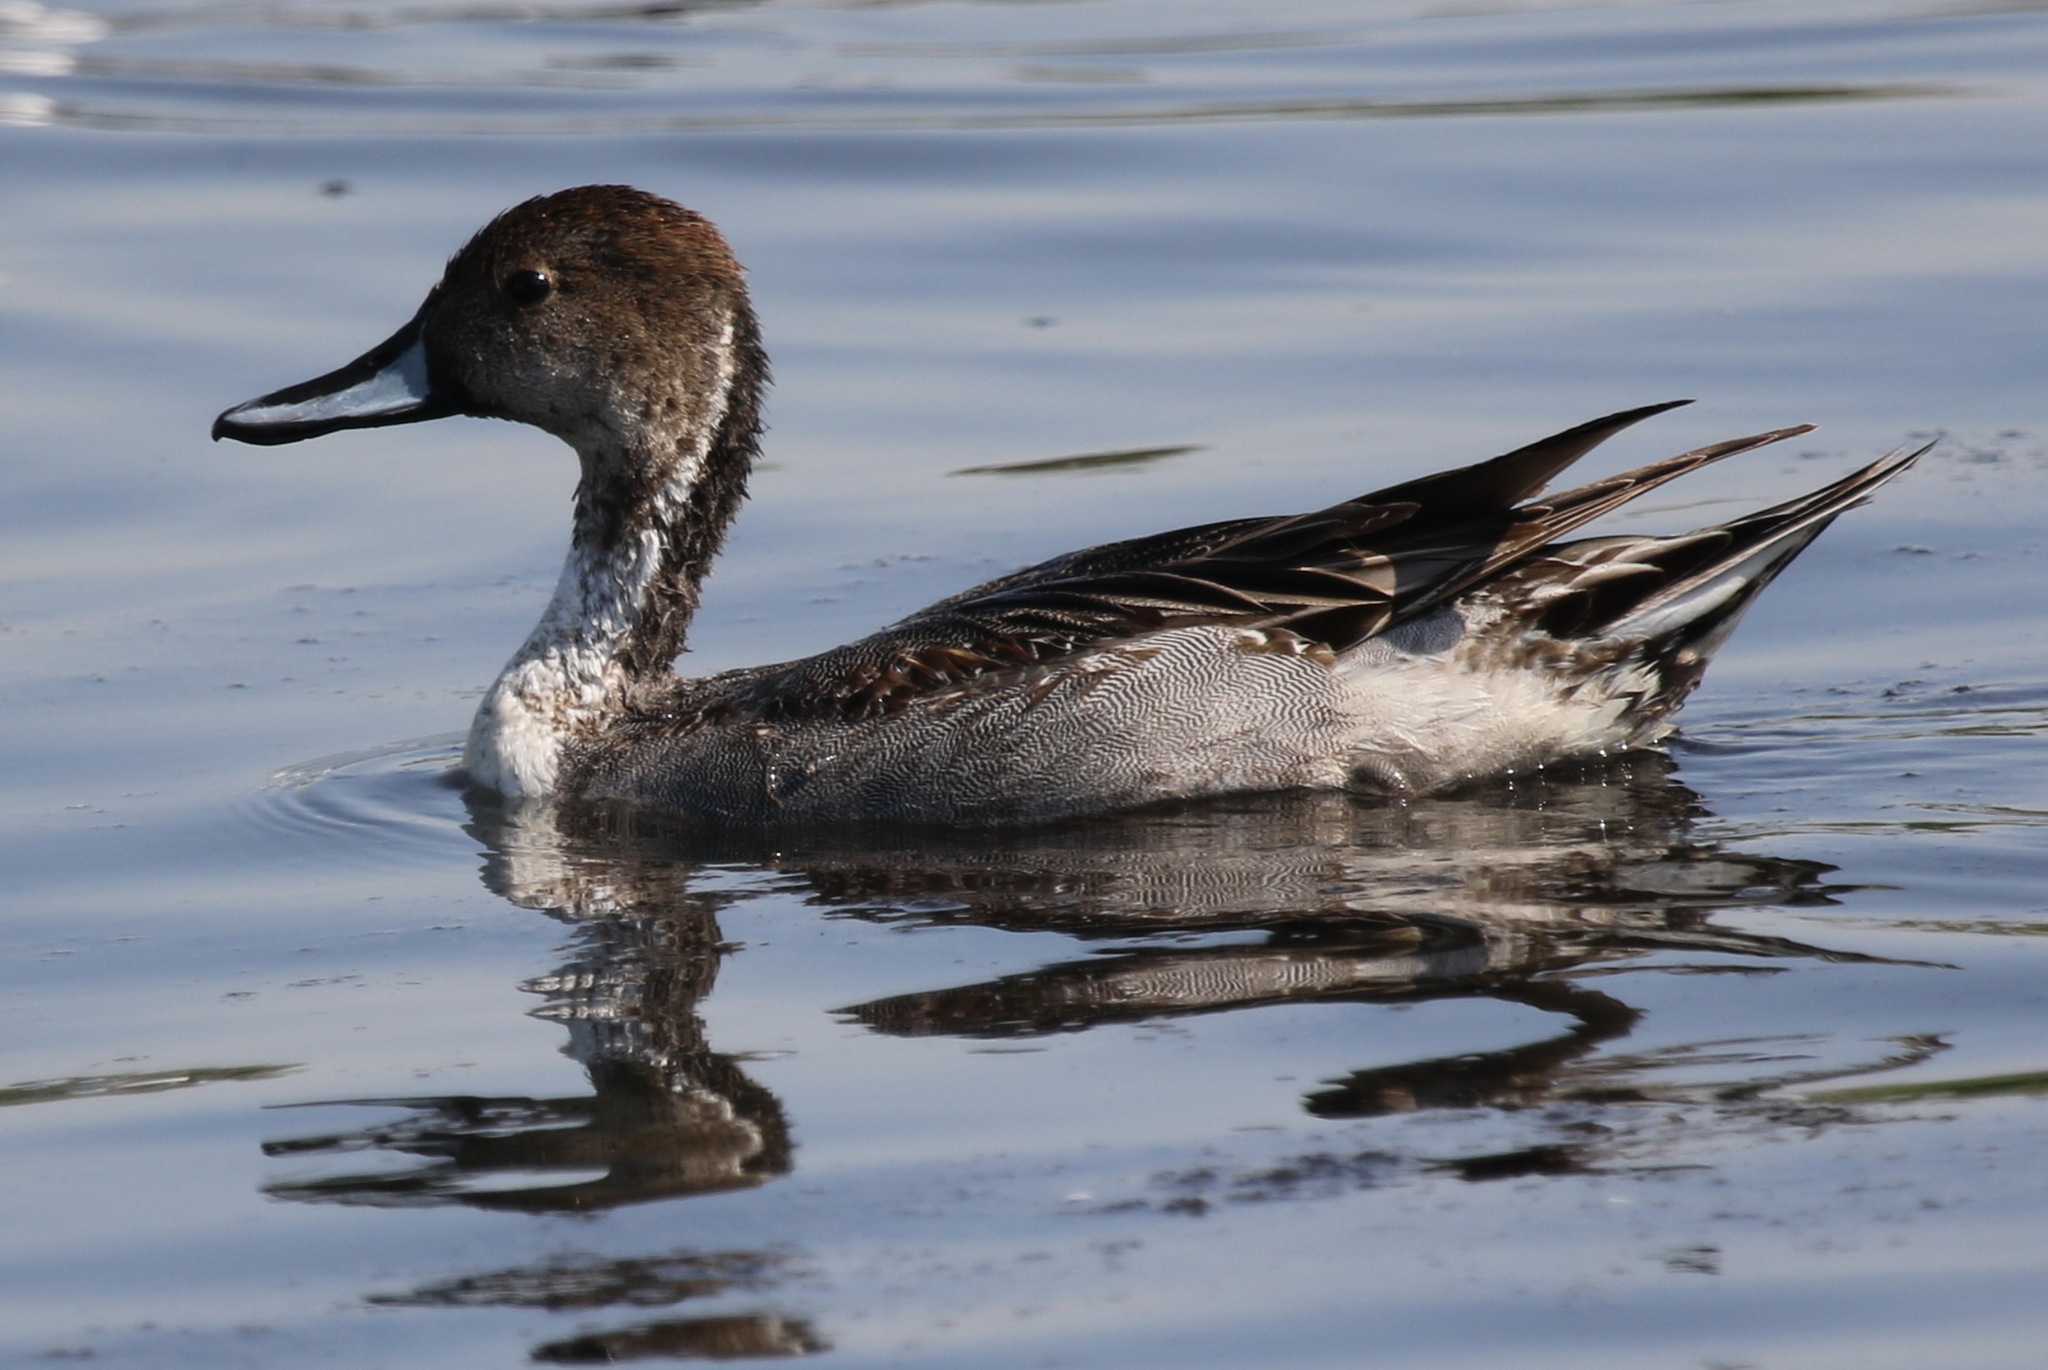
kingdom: Animalia
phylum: Chordata
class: Aves
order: Anseriformes
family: Anatidae
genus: Anas
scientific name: Anas acuta
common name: Northern pintail
